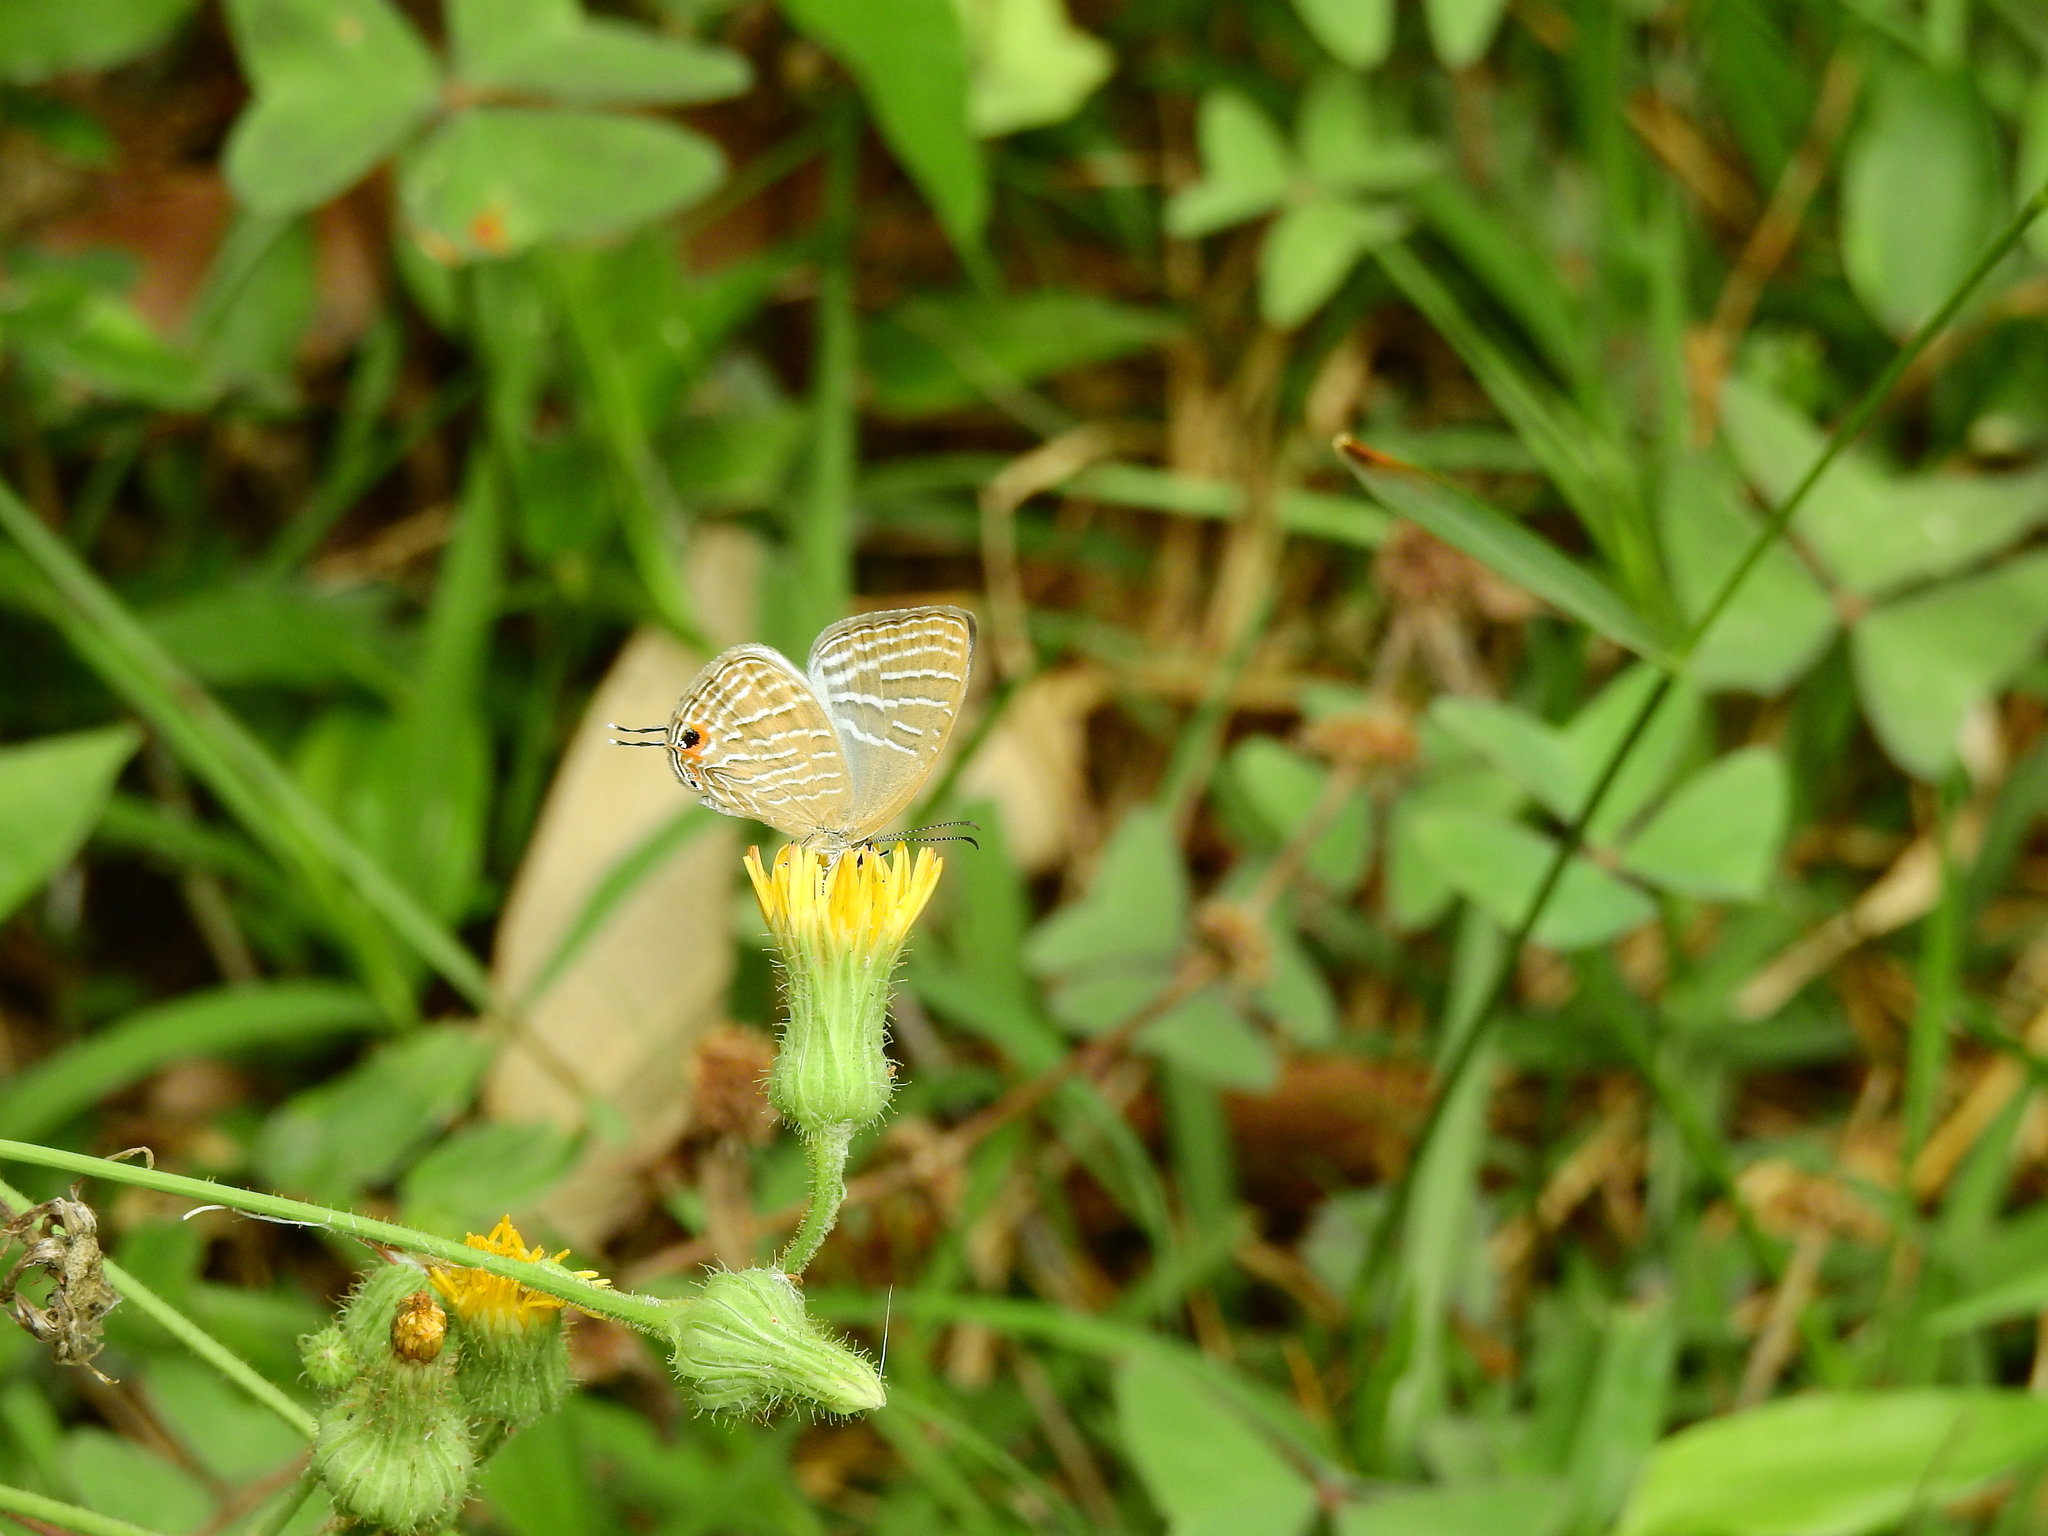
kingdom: Animalia
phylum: Arthropoda
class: Insecta
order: Lepidoptera
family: Lycaenidae
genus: Jamides
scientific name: Jamides celeno
